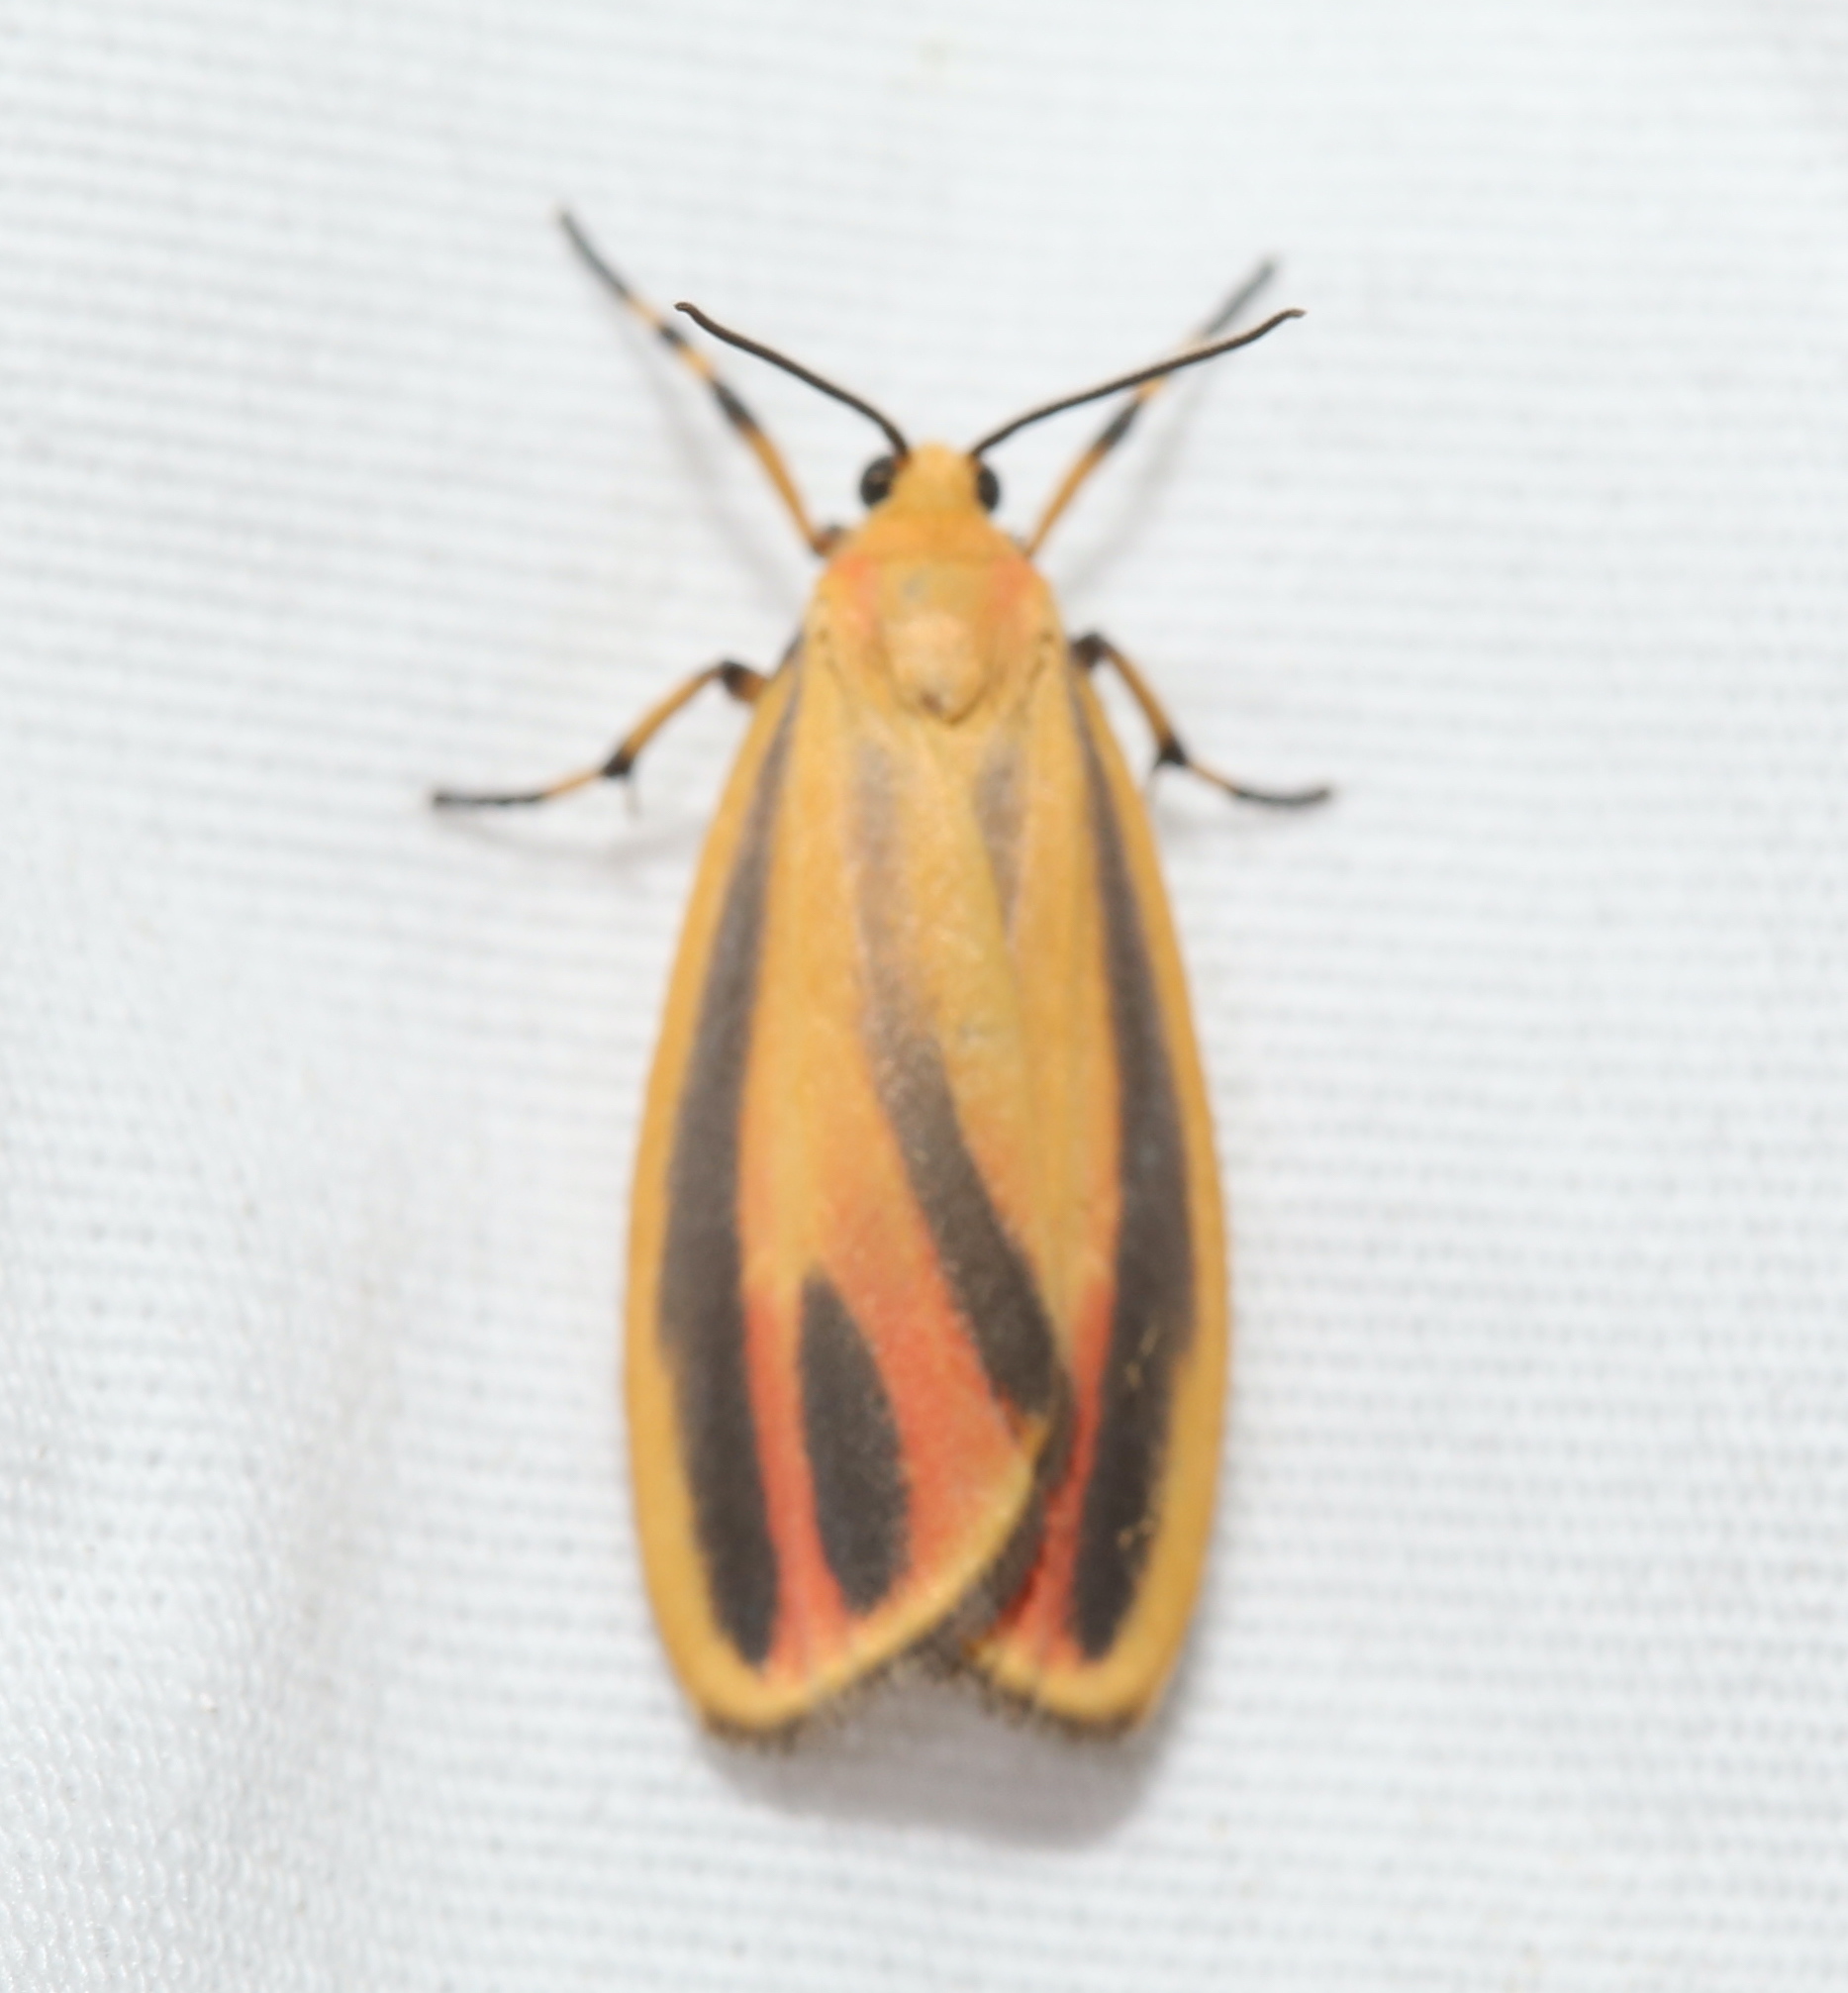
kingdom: Animalia
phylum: Arthropoda
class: Insecta
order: Lepidoptera
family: Erebidae
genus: Hypoprepia
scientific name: Hypoprepia fucosa
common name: Painted lichen moth
